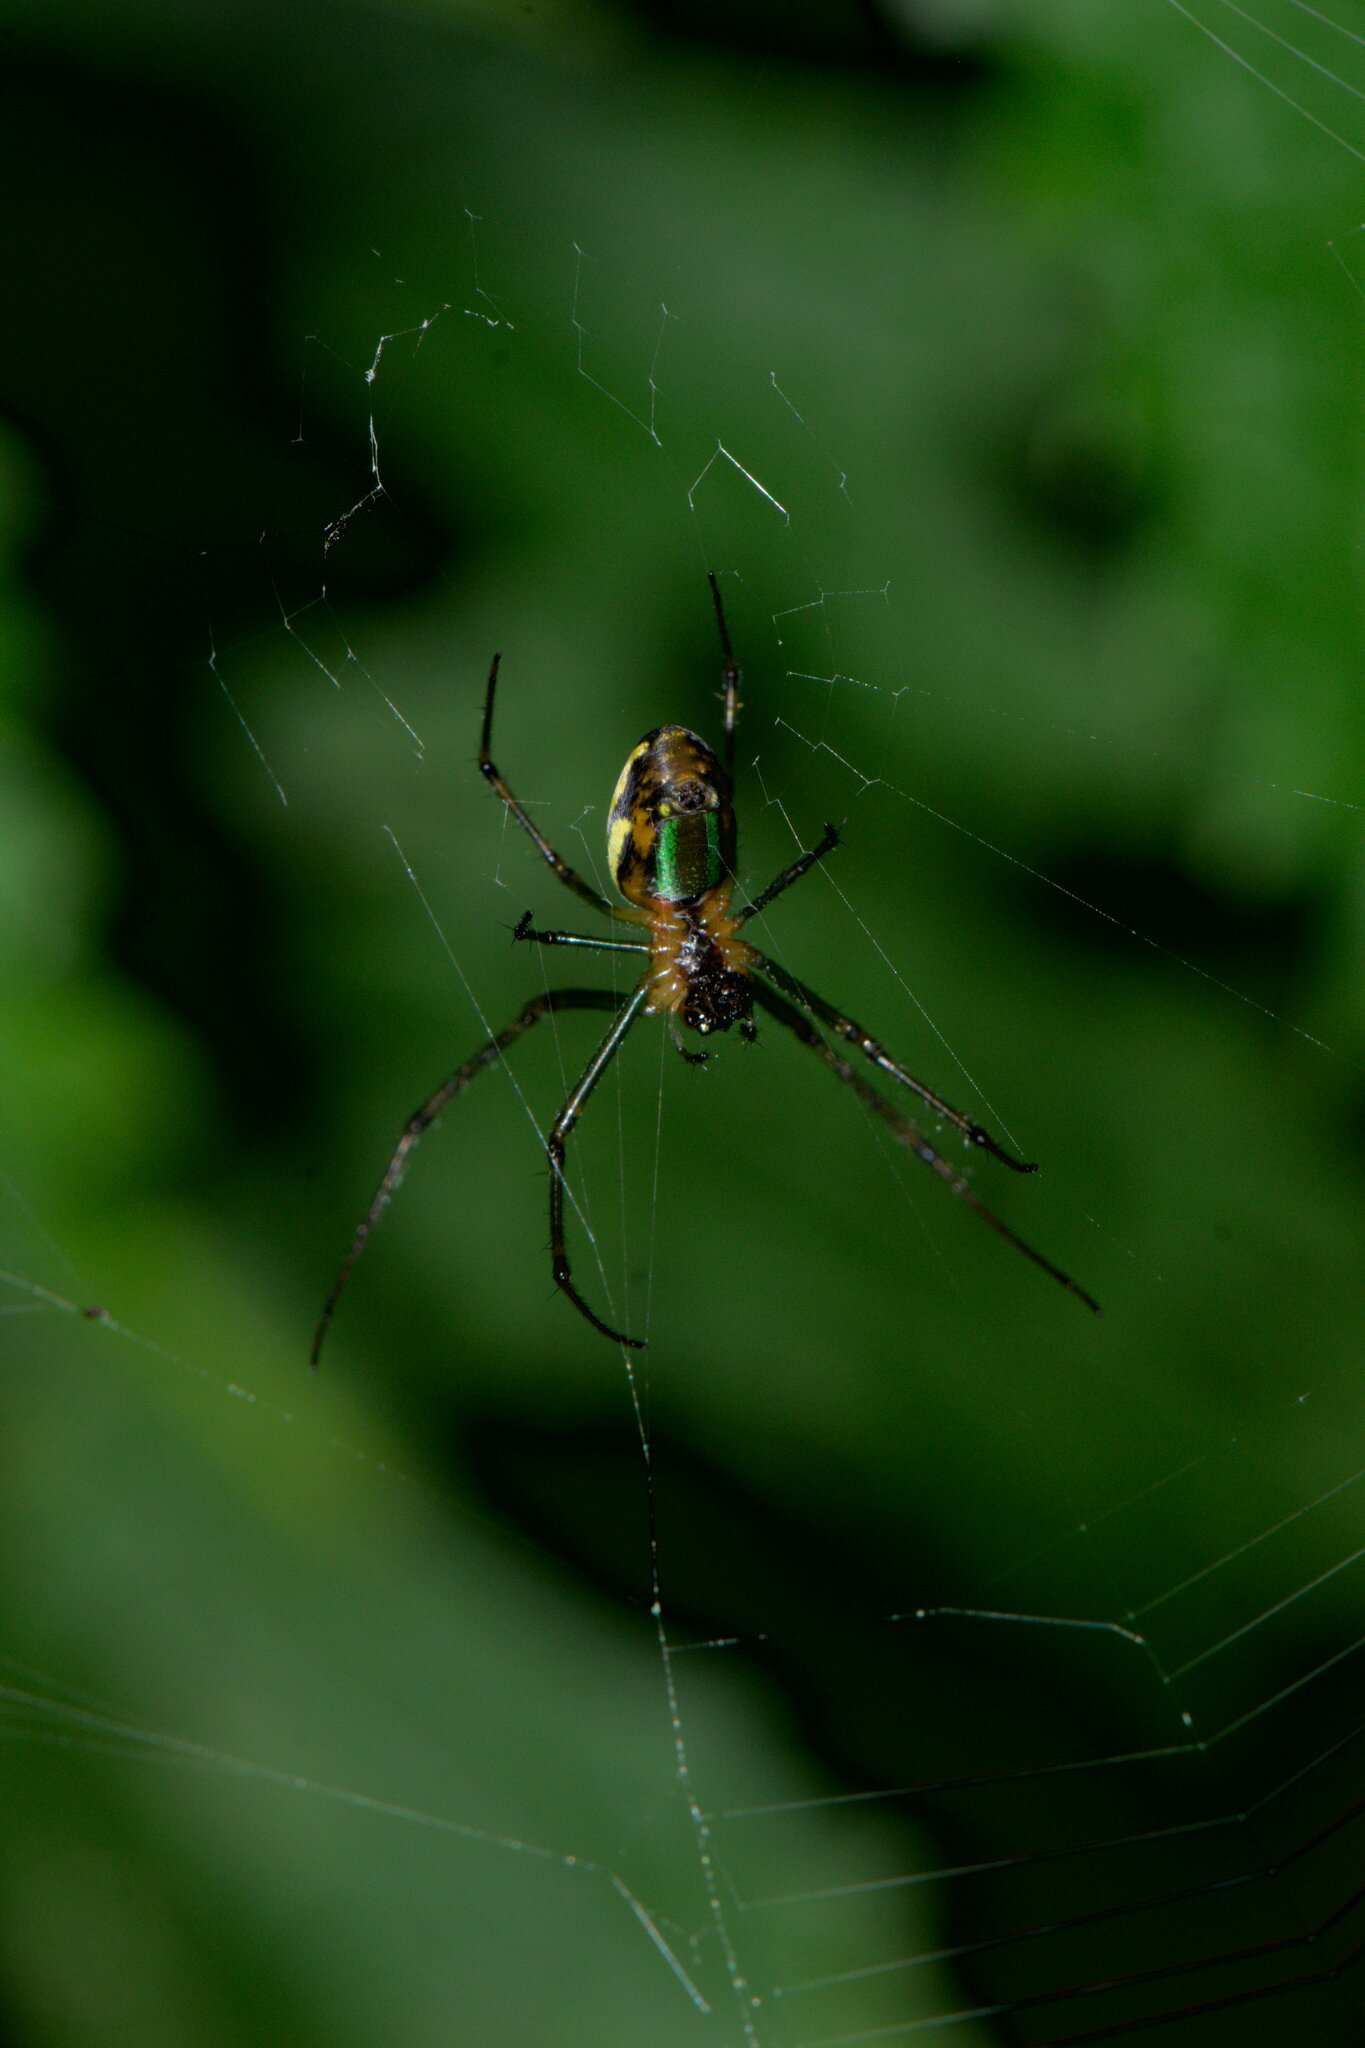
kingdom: Animalia
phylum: Arthropoda
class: Arachnida
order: Araneae
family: Tetragnathidae
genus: Leucauge
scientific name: Leucauge celebesiana
